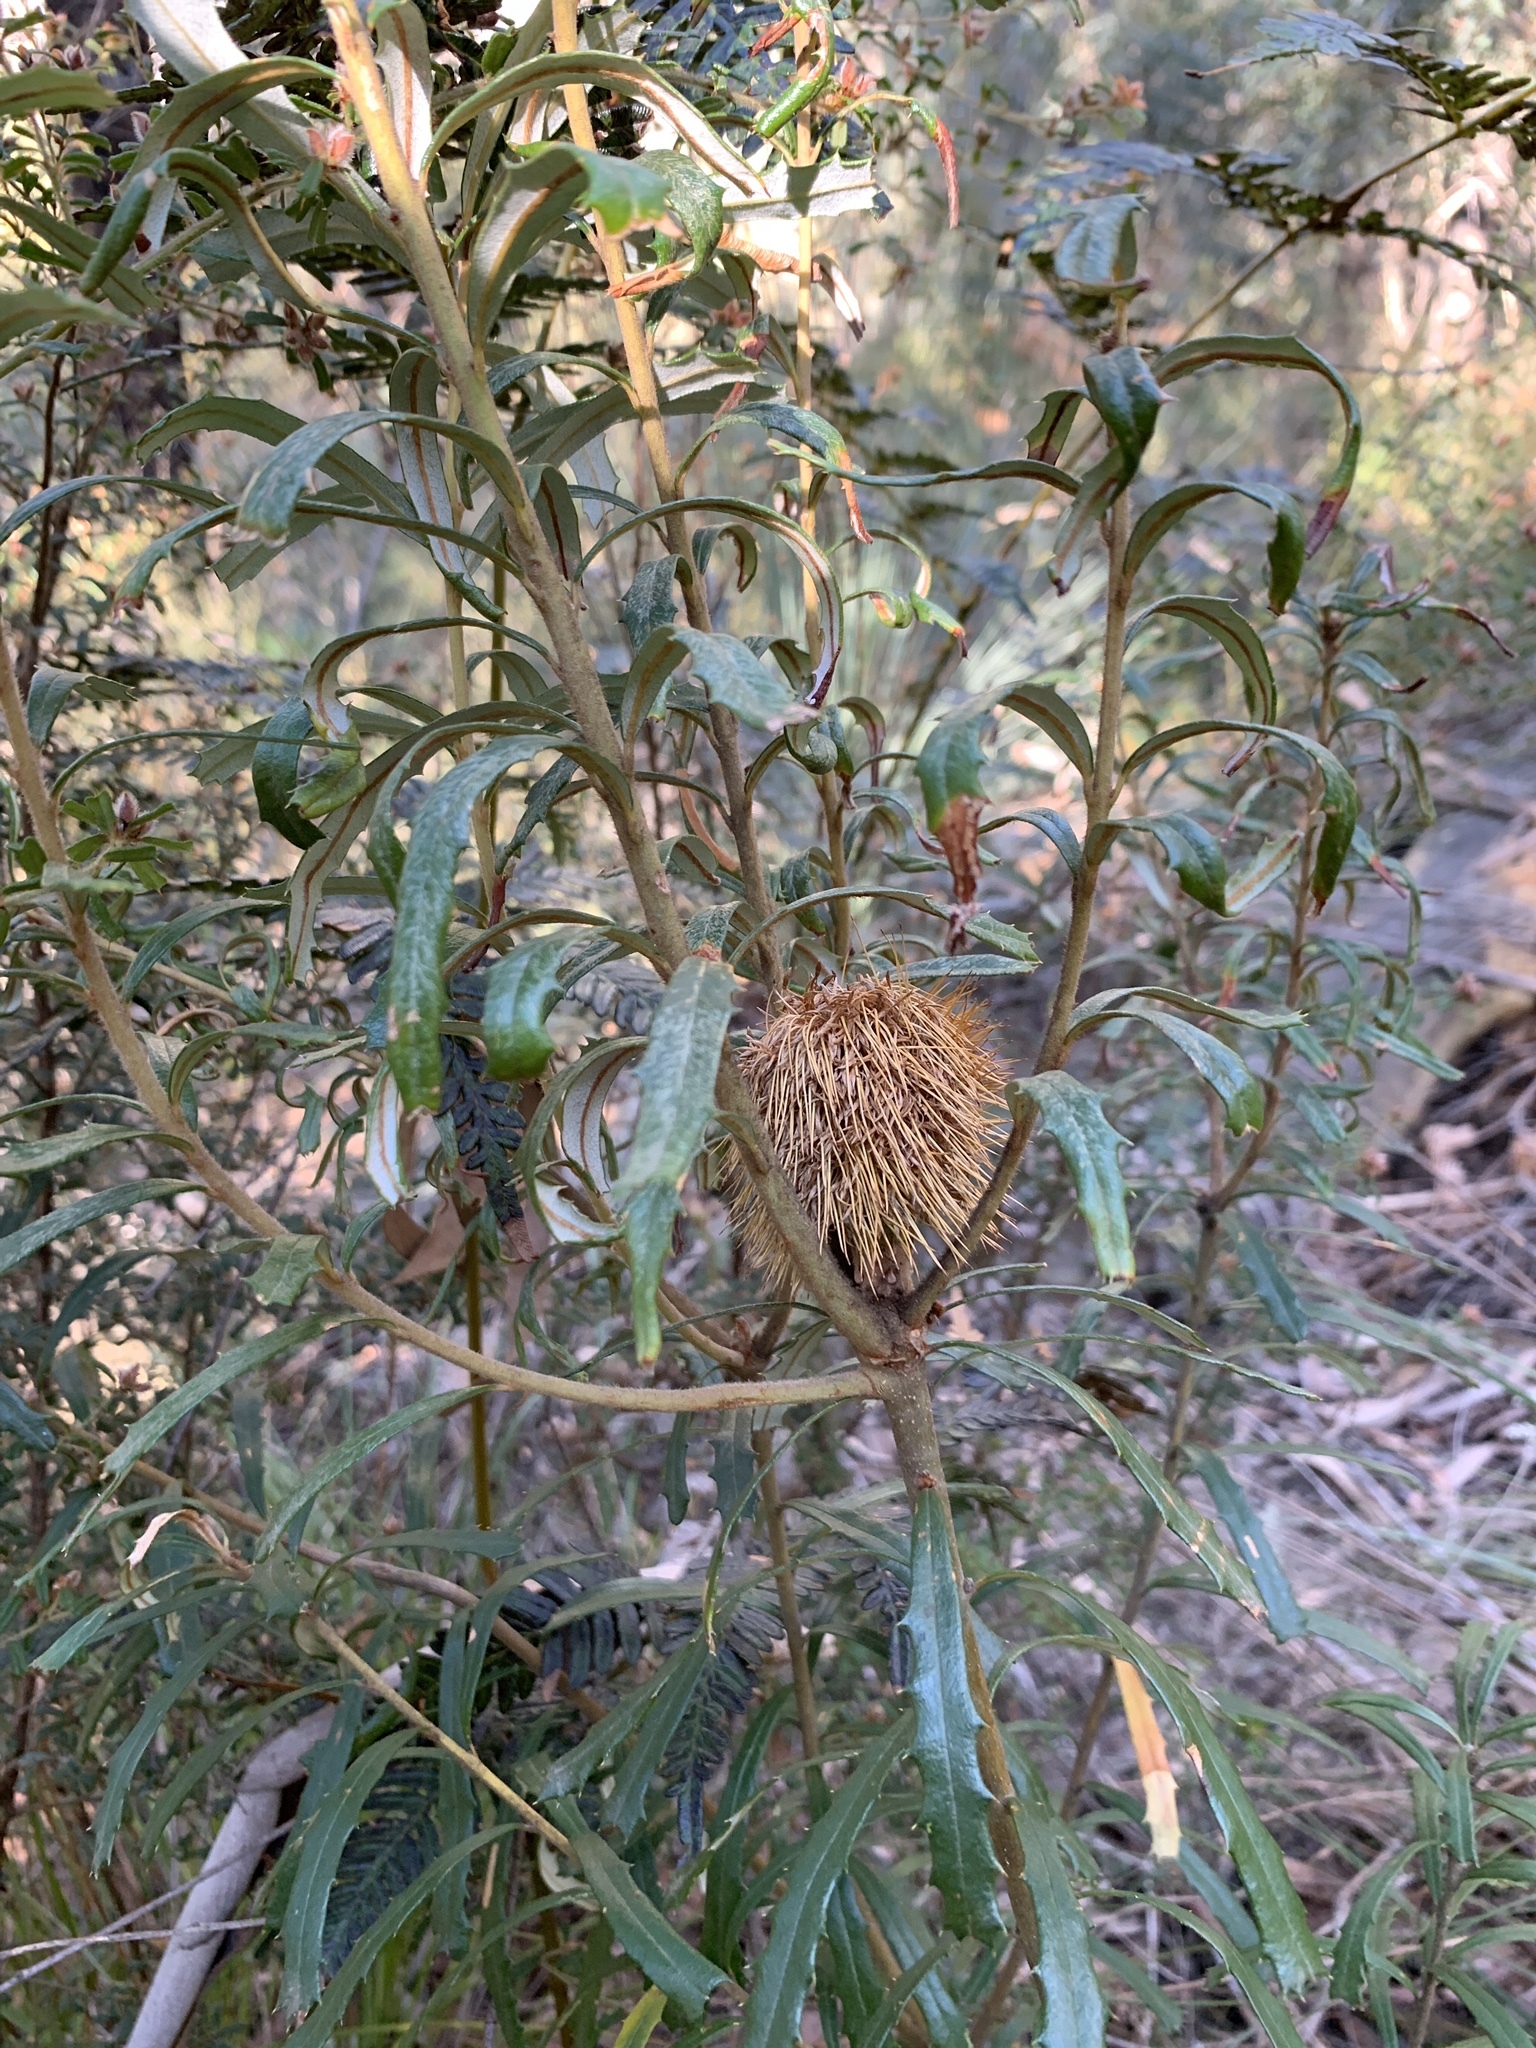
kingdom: Plantae
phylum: Tracheophyta
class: Magnoliopsida
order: Proteales
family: Proteaceae
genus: Banksia
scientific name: Banksia marginata
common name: Silver banksia
